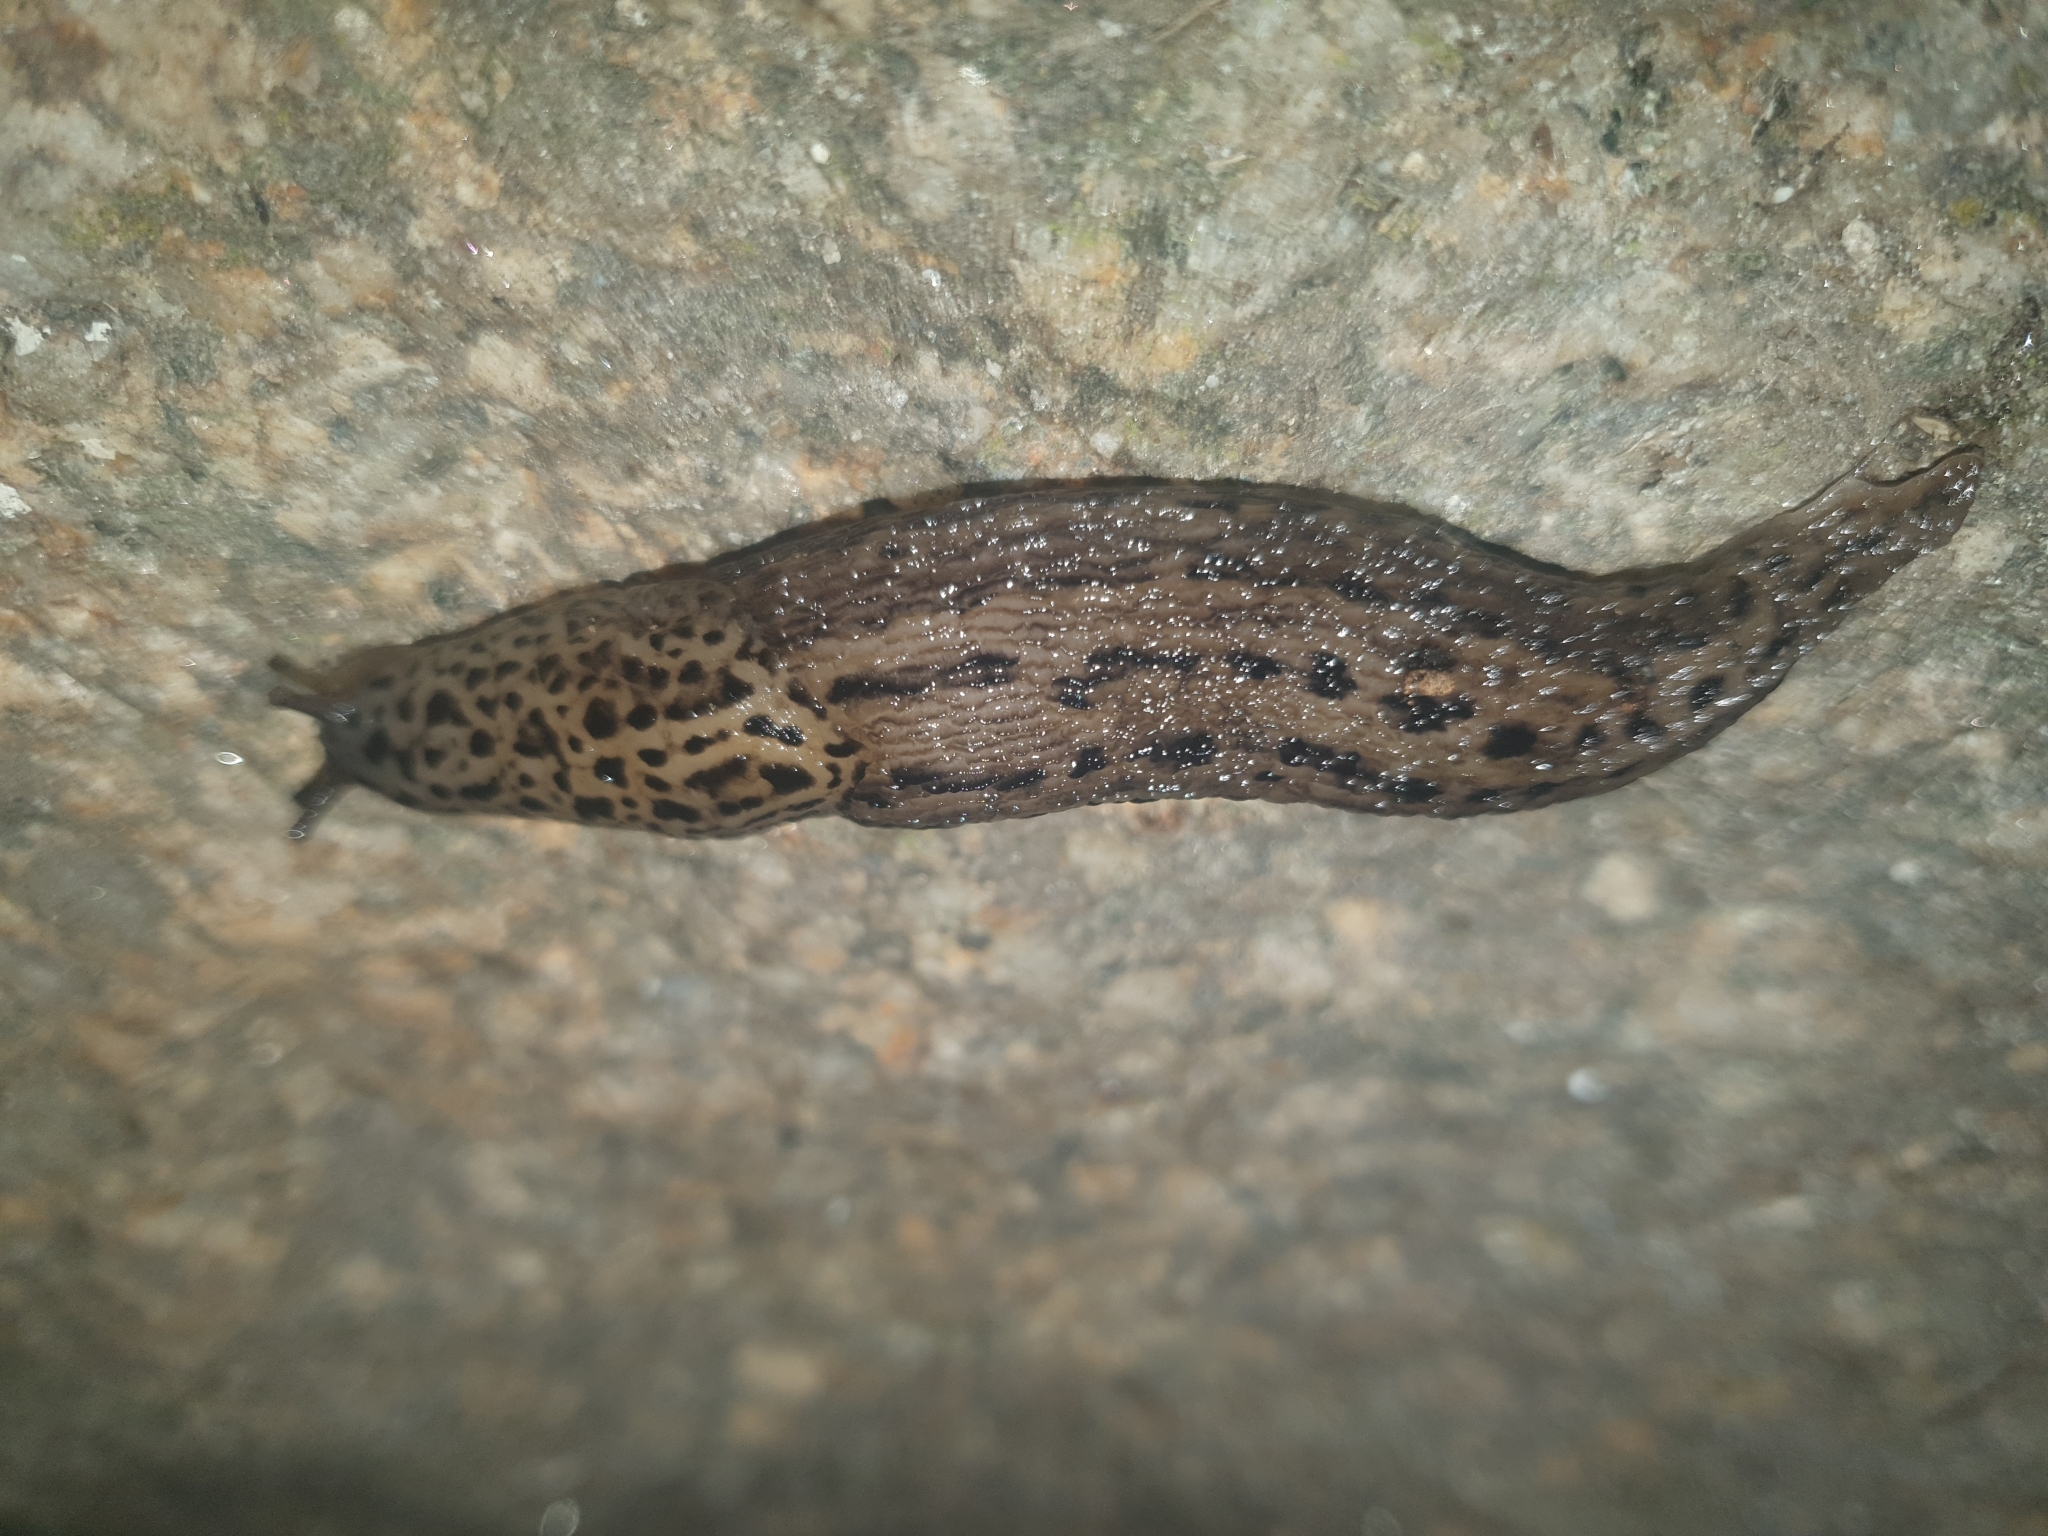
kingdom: Animalia
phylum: Mollusca
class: Gastropoda
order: Stylommatophora
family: Limacidae
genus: Limax
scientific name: Limax maximus
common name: Great grey slug
